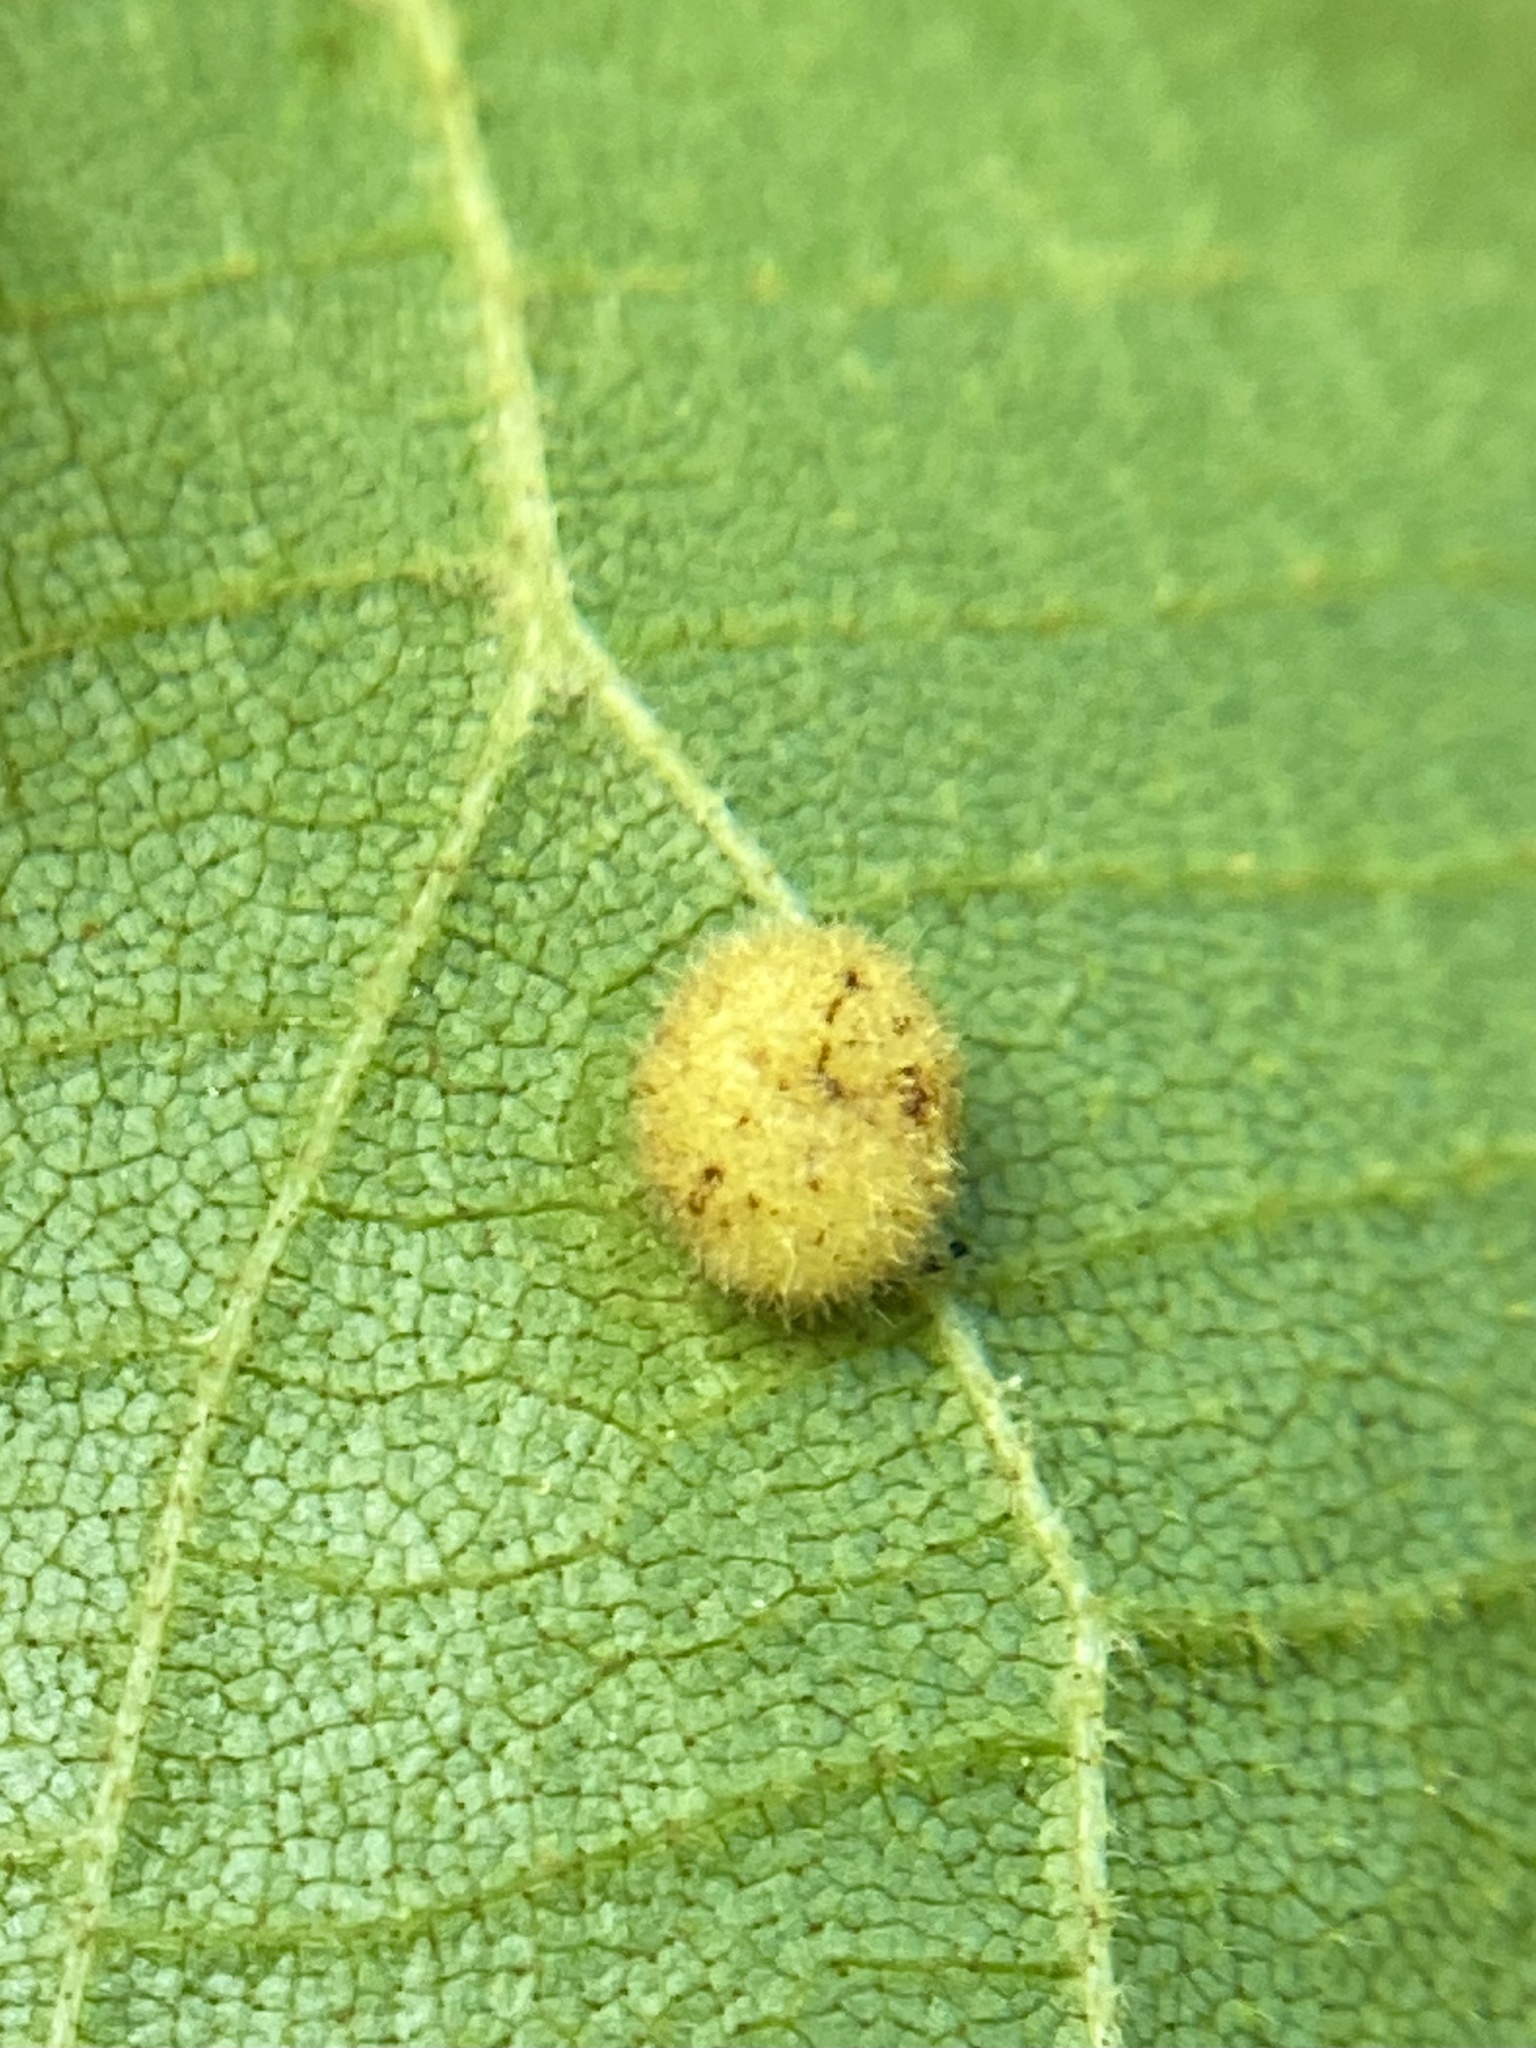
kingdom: Animalia
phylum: Arthropoda
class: Insecta
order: Diptera
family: Cecidomyiidae
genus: Caryomyia
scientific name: Caryomyia thompsoni
